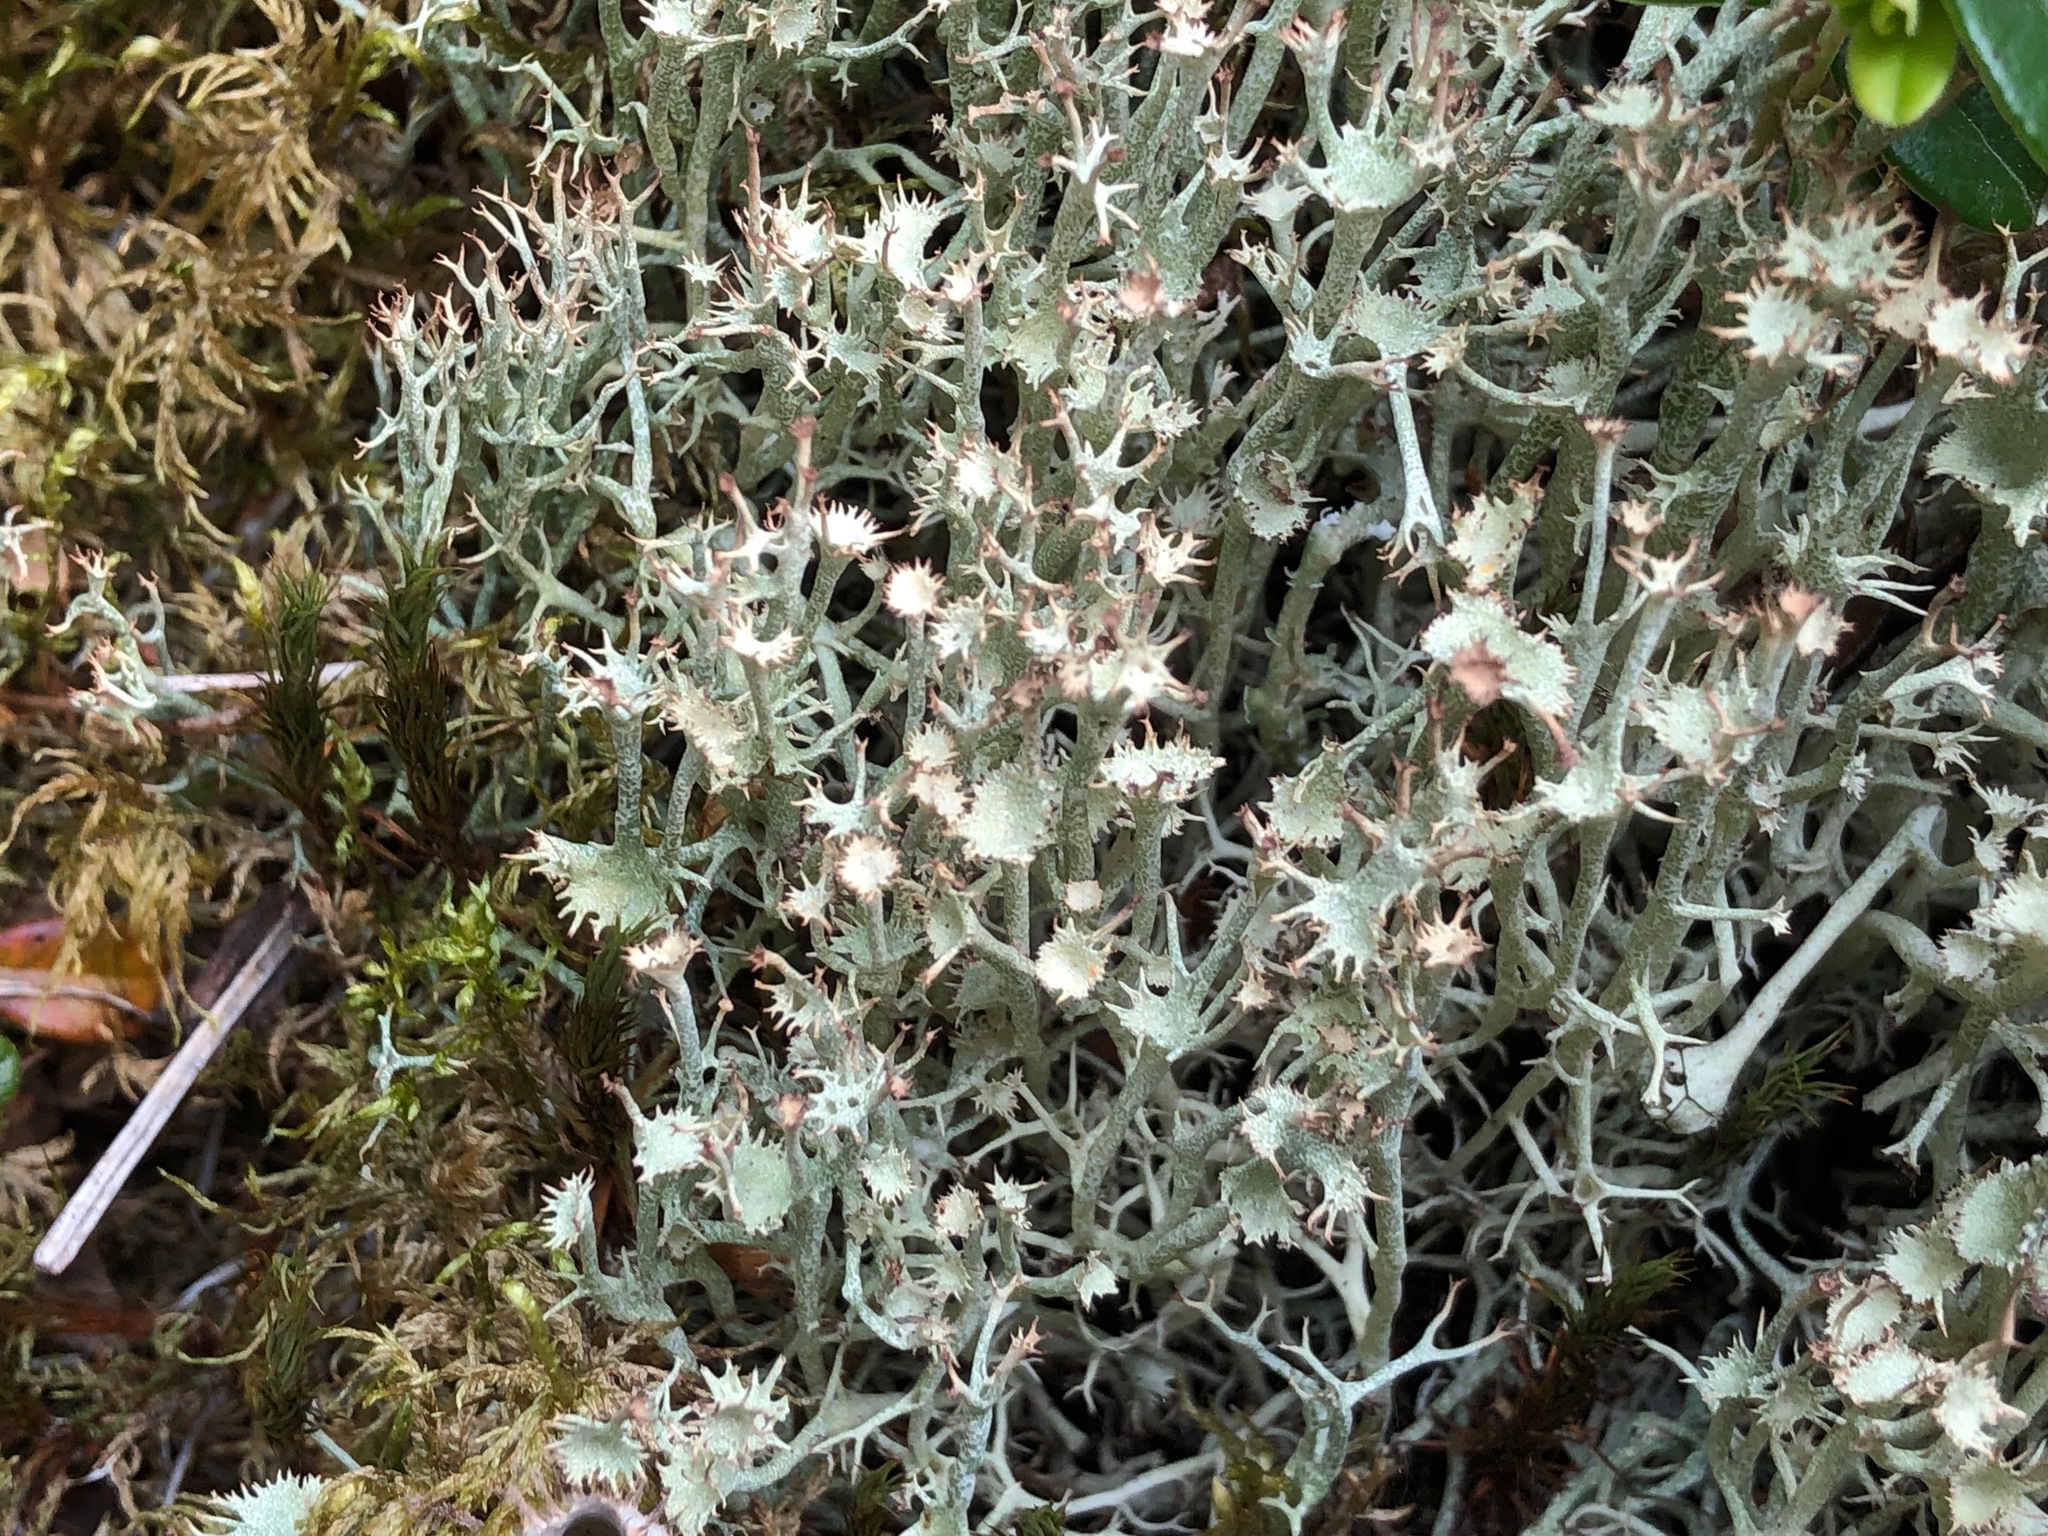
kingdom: Fungi
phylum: Ascomycota
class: Lecanoromycetes
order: Lecanorales
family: Cladoniaceae
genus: Cladonia
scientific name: Cladonia amaurocraea
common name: Quill lichen
